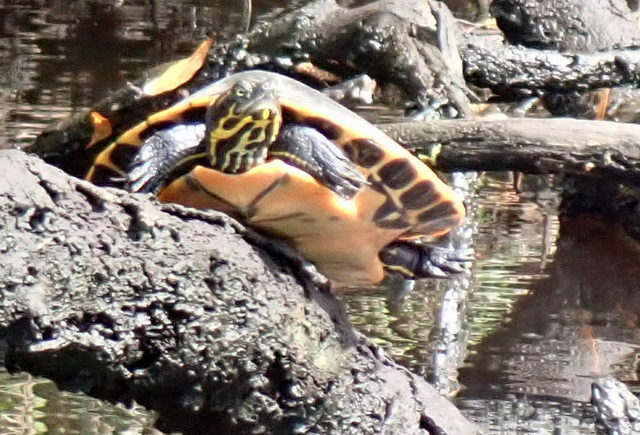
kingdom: Animalia
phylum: Chordata
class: Testudines
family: Emydidae
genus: Pseudemys
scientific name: Pseudemys concinna
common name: Eastern river cooter
